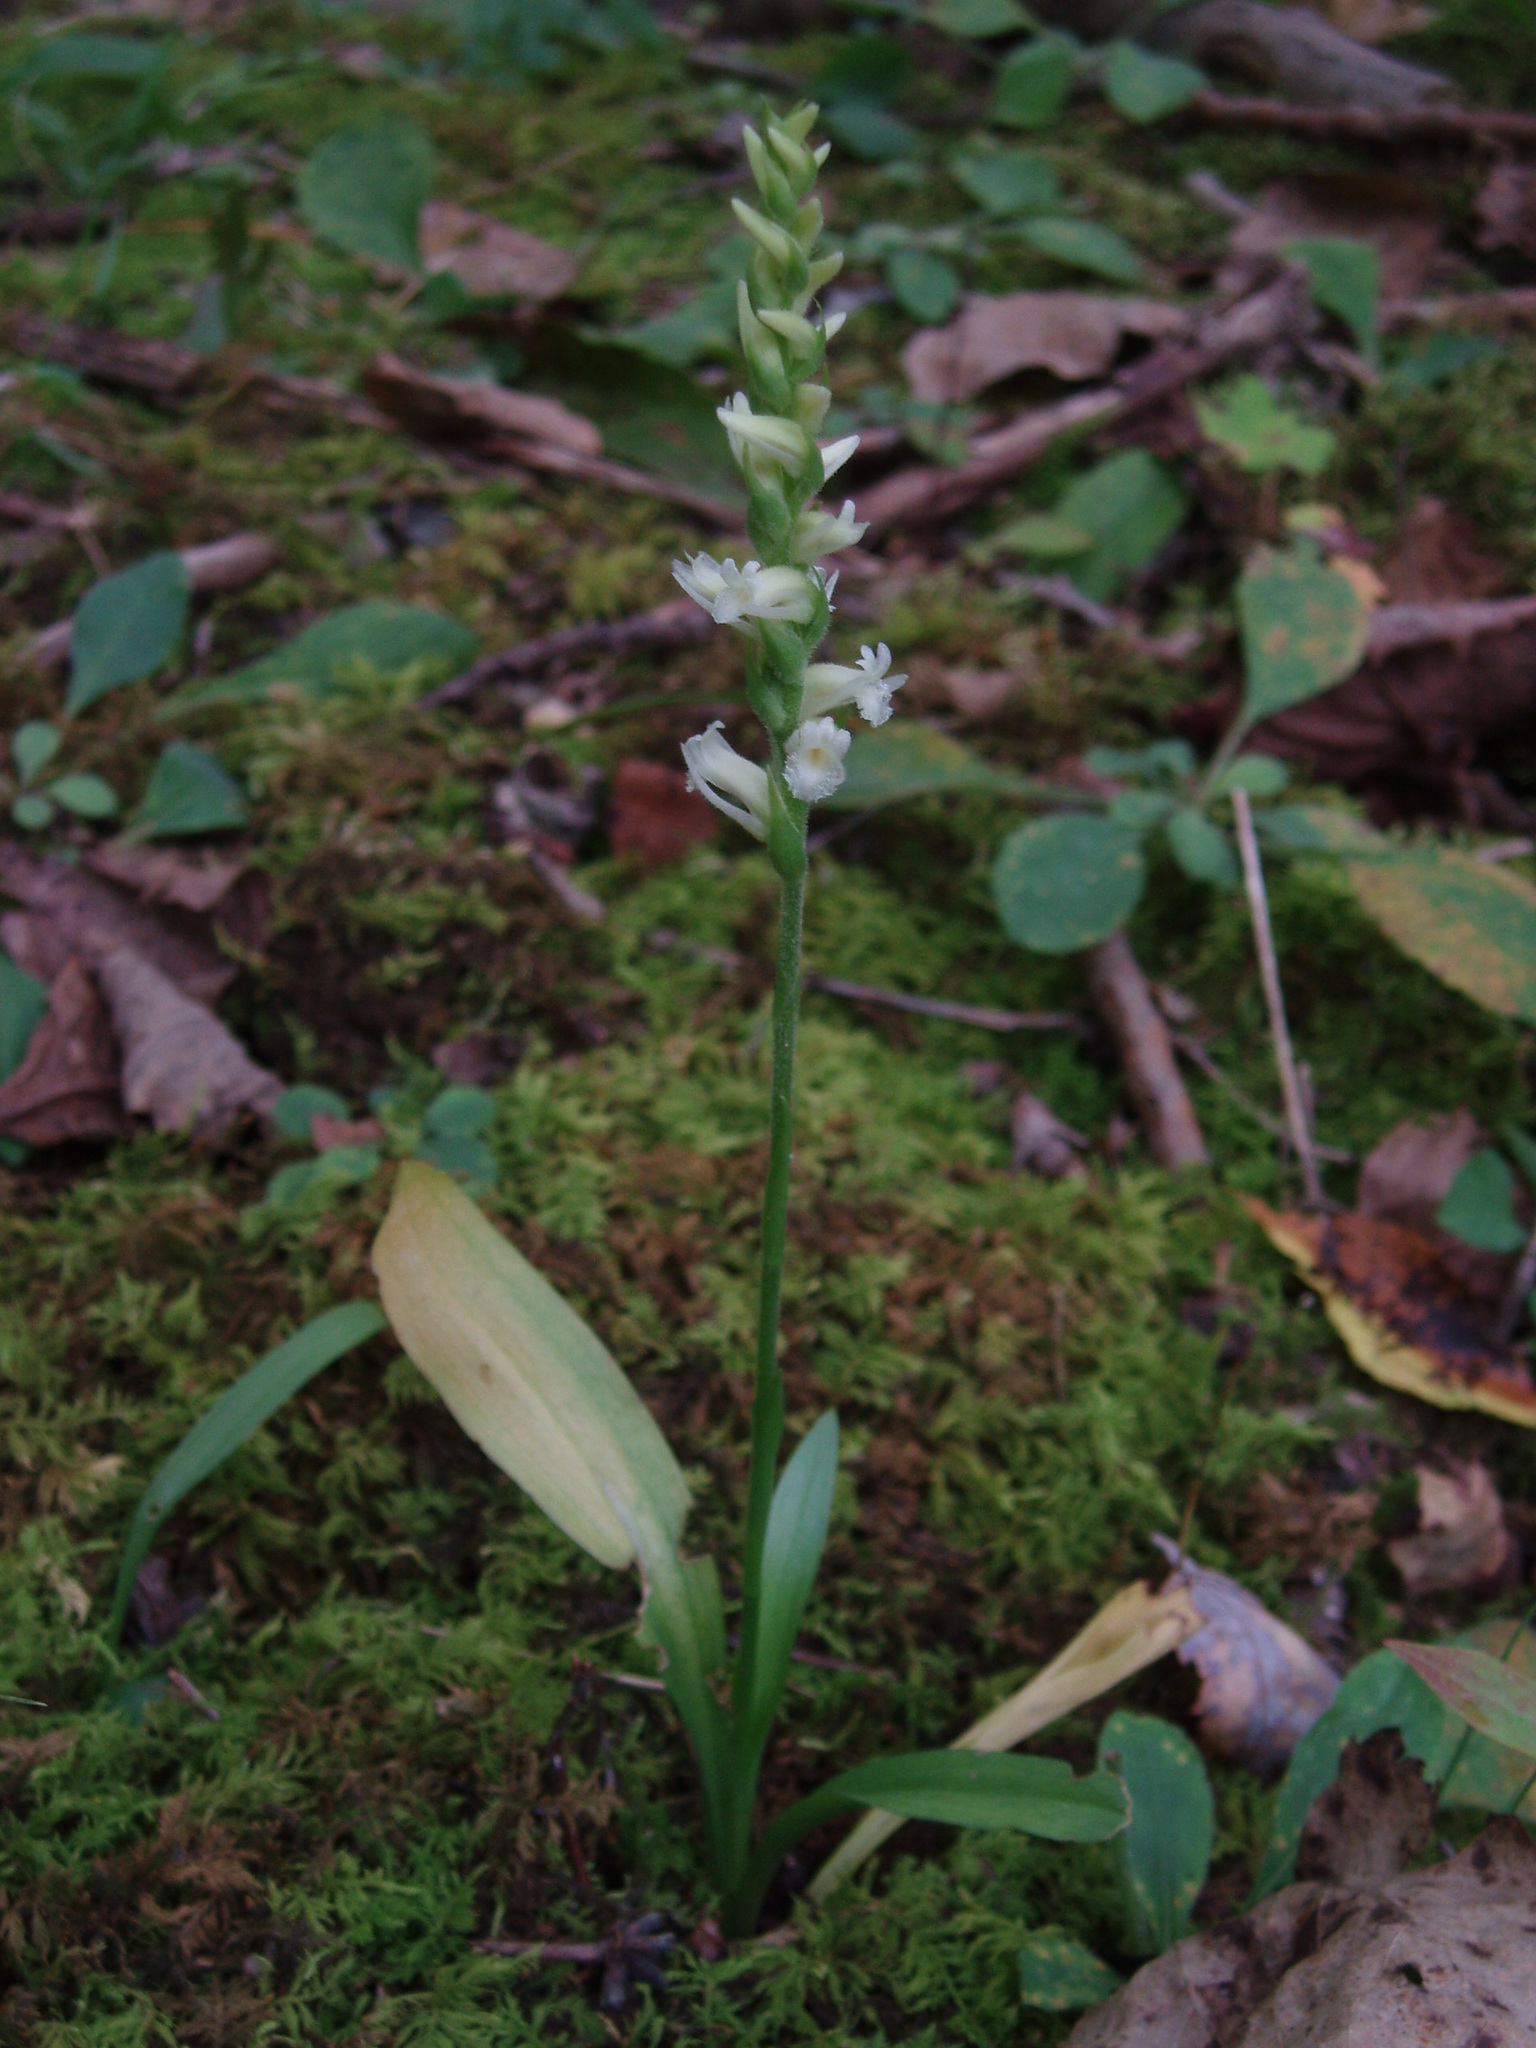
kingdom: Plantae
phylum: Tracheophyta
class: Liliopsida
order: Asparagales
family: Orchidaceae
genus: Spiranthes
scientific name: Spiranthes ochroleuca
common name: Yellow ladies'-tresses
